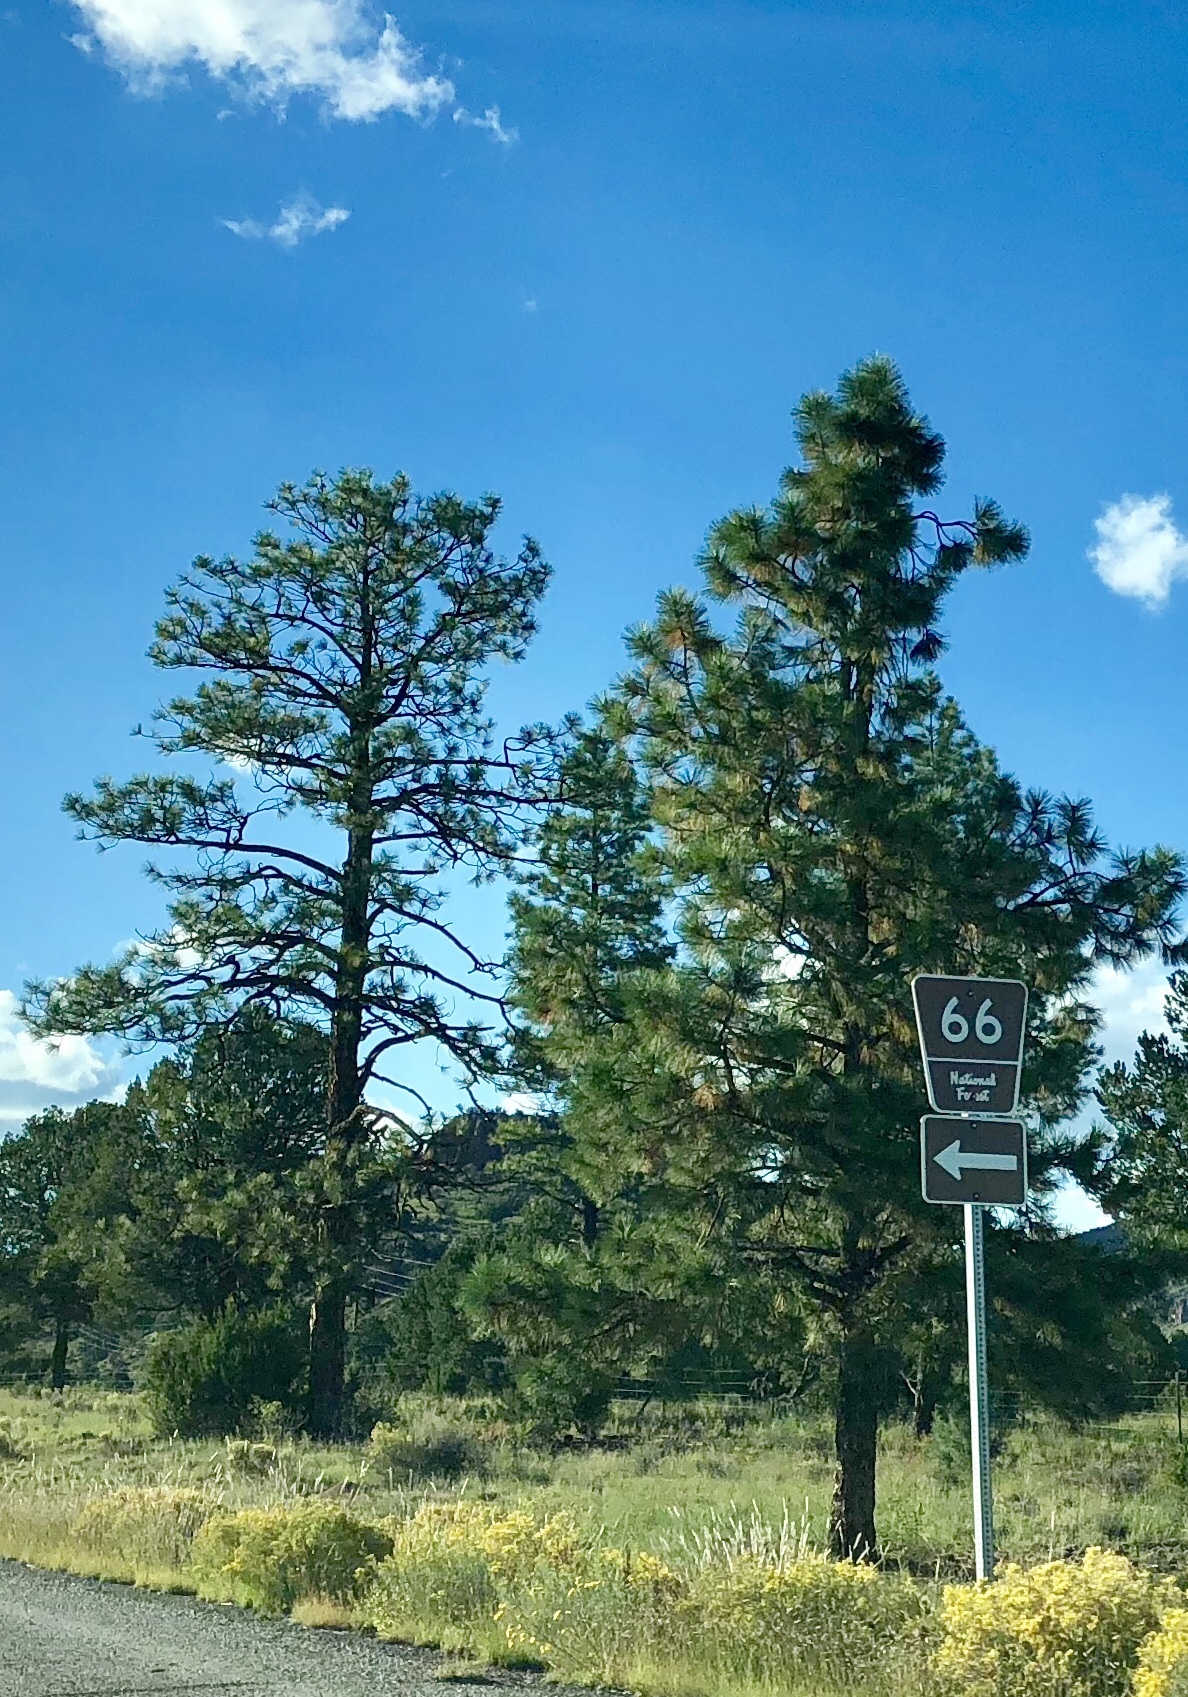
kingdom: Plantae
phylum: Tracheophyta
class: Pinopsida
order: Pinales
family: Pinaceae
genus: Pinus
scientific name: Pinus ponderosa
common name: Western yellow-pine
